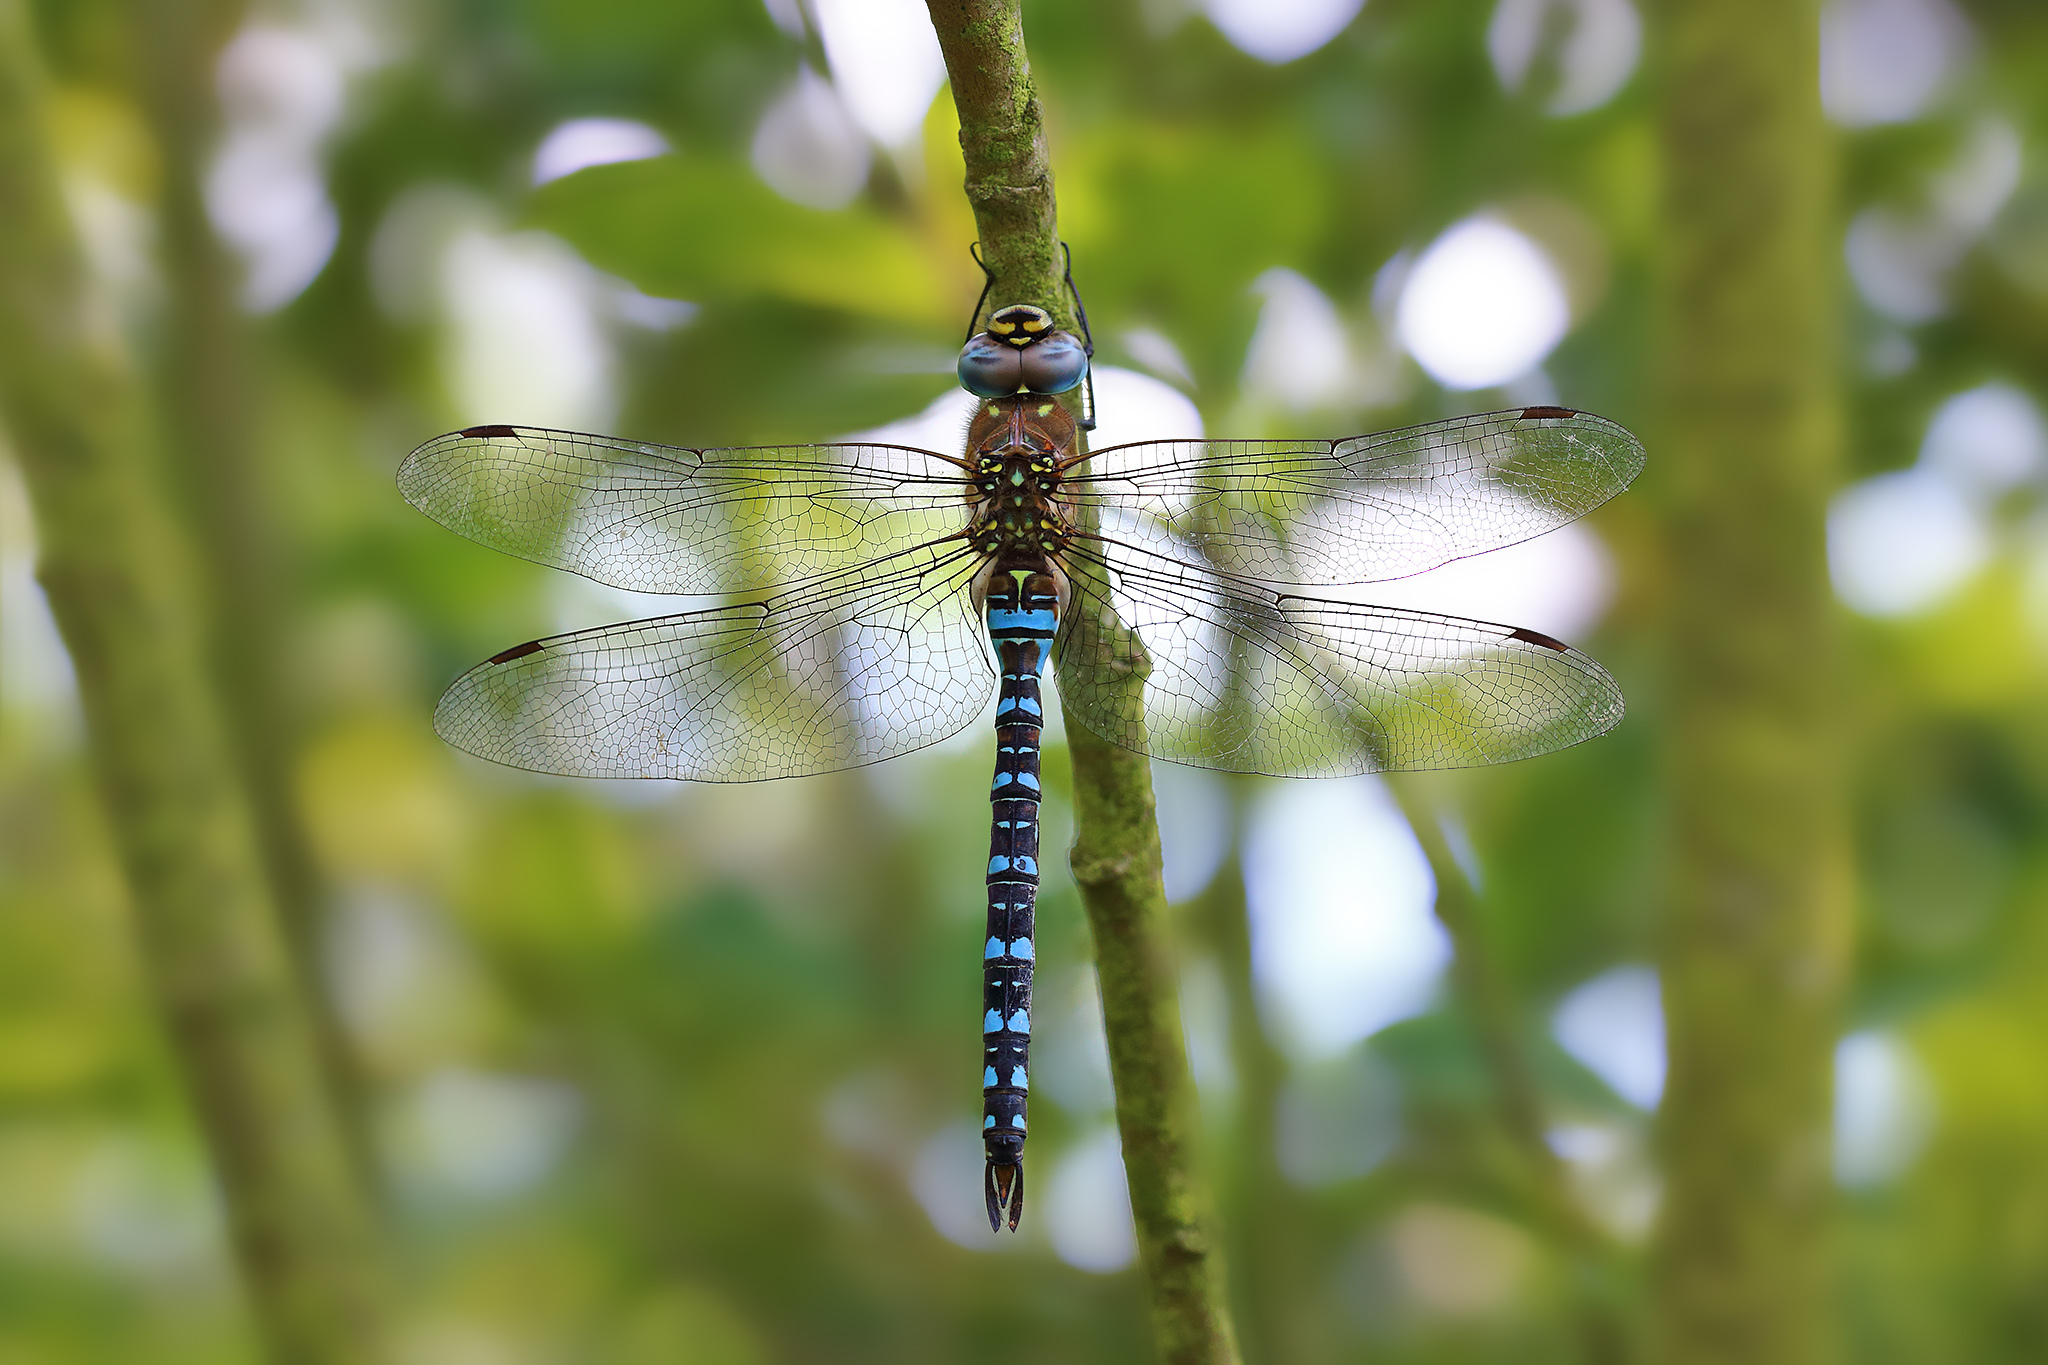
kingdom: Animalia
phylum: Arthropoda
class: Insecta
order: Odonata
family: Aeshnidae
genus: Aeshna
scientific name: Aeshna mixta
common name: Migrant hawker
